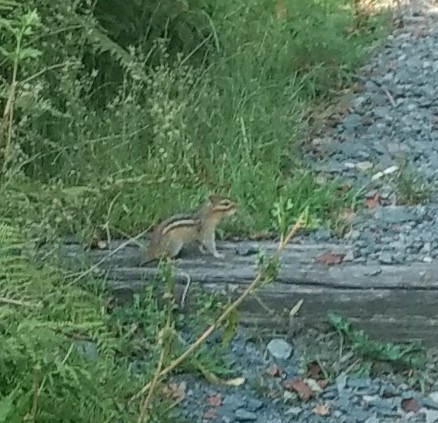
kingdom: Animalia
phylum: Chordata
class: Mammalia
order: Rodentia
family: Sciuridae
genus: Tamias
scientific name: Tamias striatus
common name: Eastern chipmunk
